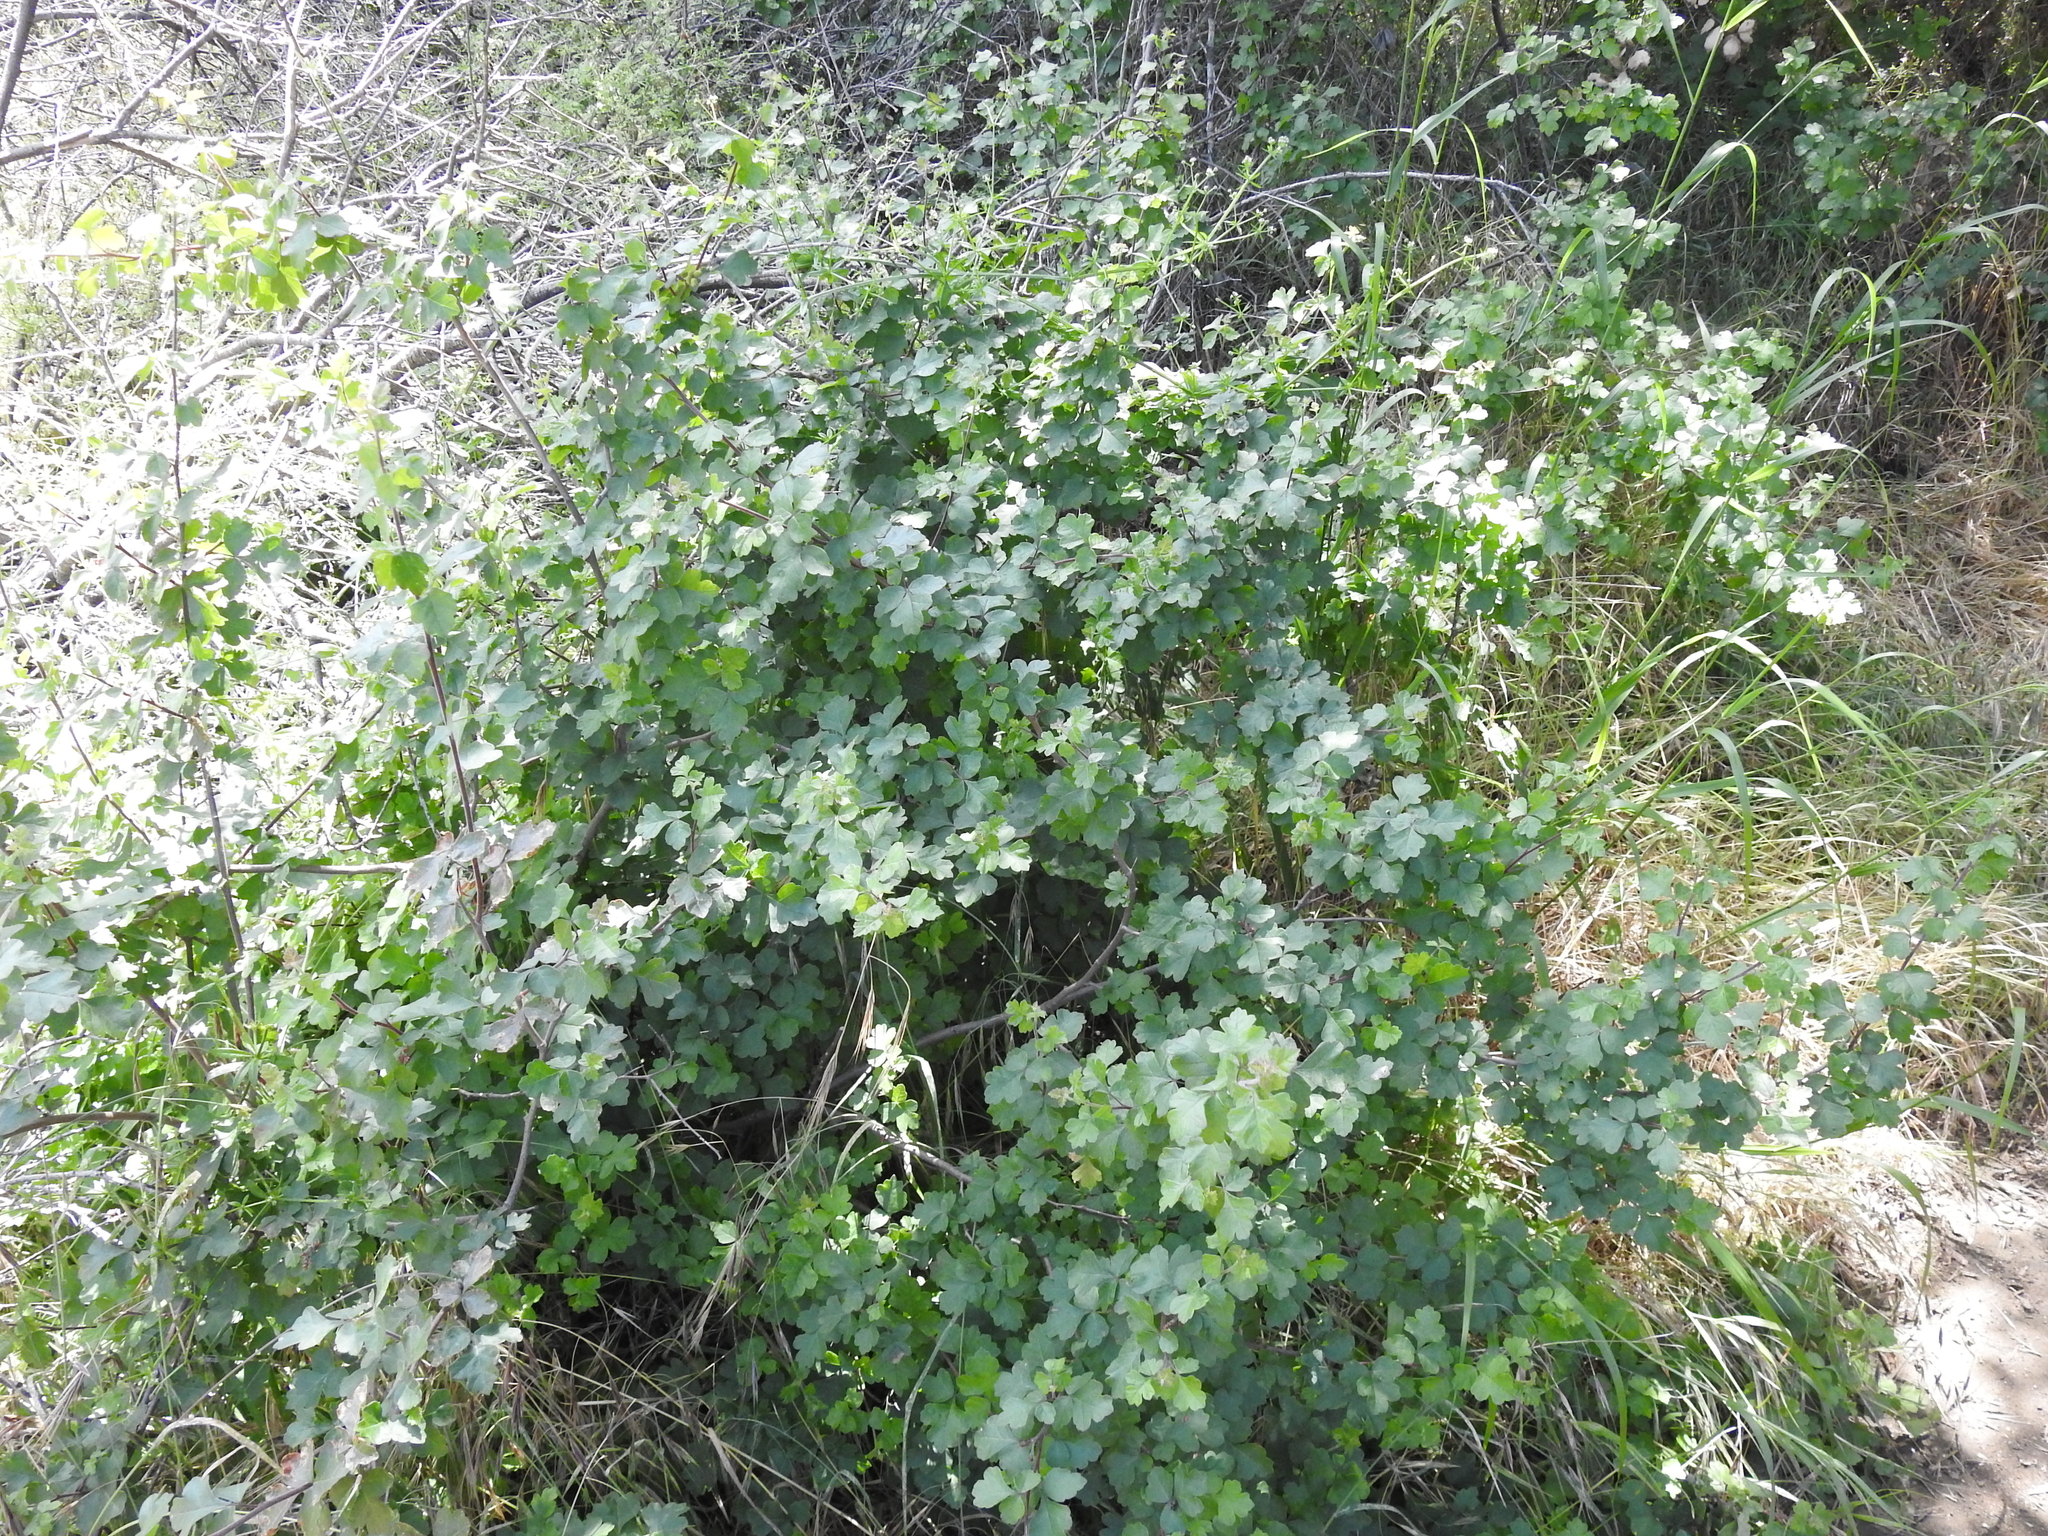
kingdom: Plantae
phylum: Tracheophyta
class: Magnoliopsida
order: Sapindales
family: Anacardiaceae
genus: Rhus
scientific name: Rhus aromatica
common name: Aromatic sumac
